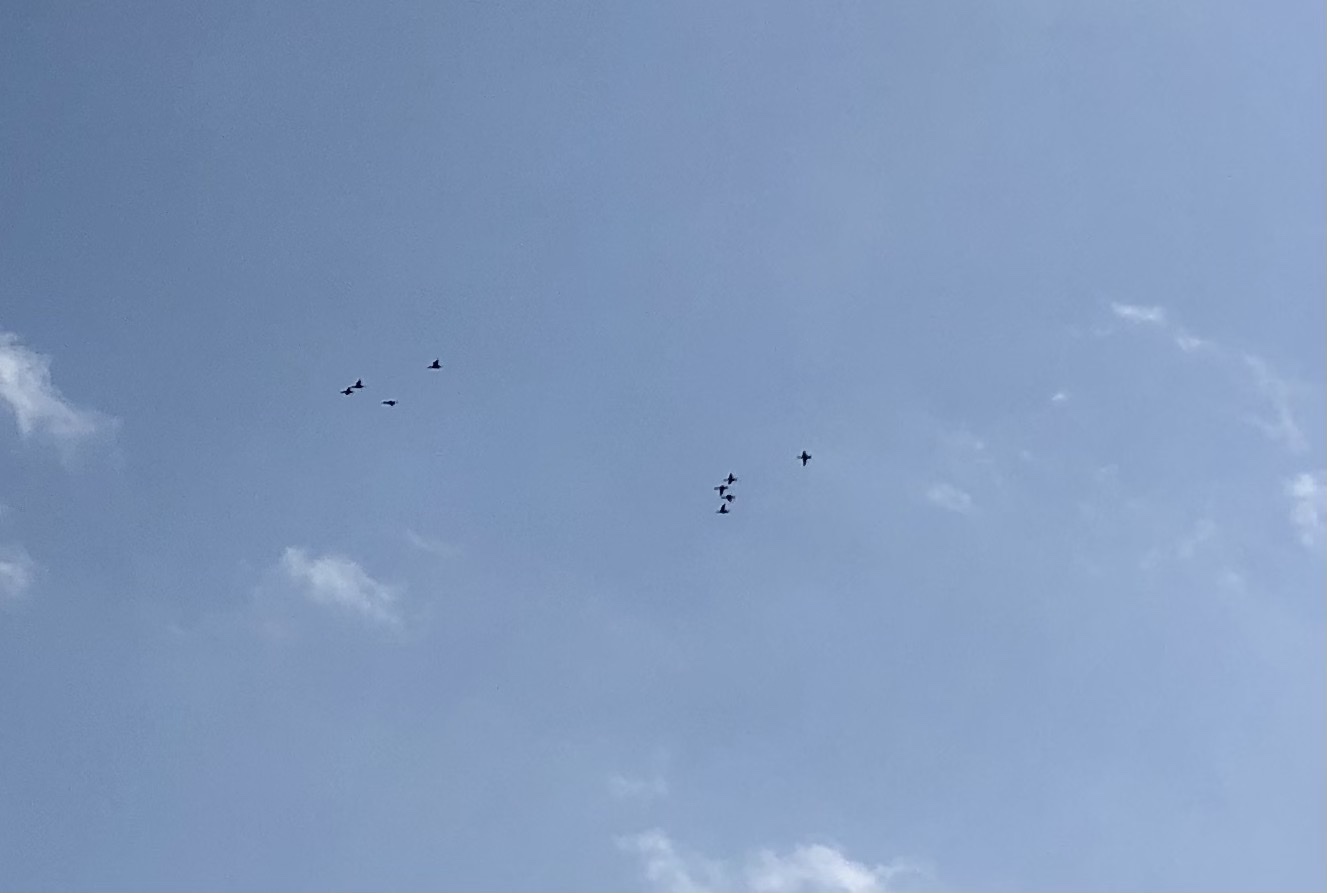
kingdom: Animalia
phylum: Chordata
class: Aves
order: Anseriformes
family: Anatidae
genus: Lophodytes
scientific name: Lophodytes cucullatus
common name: Hooded merganser
